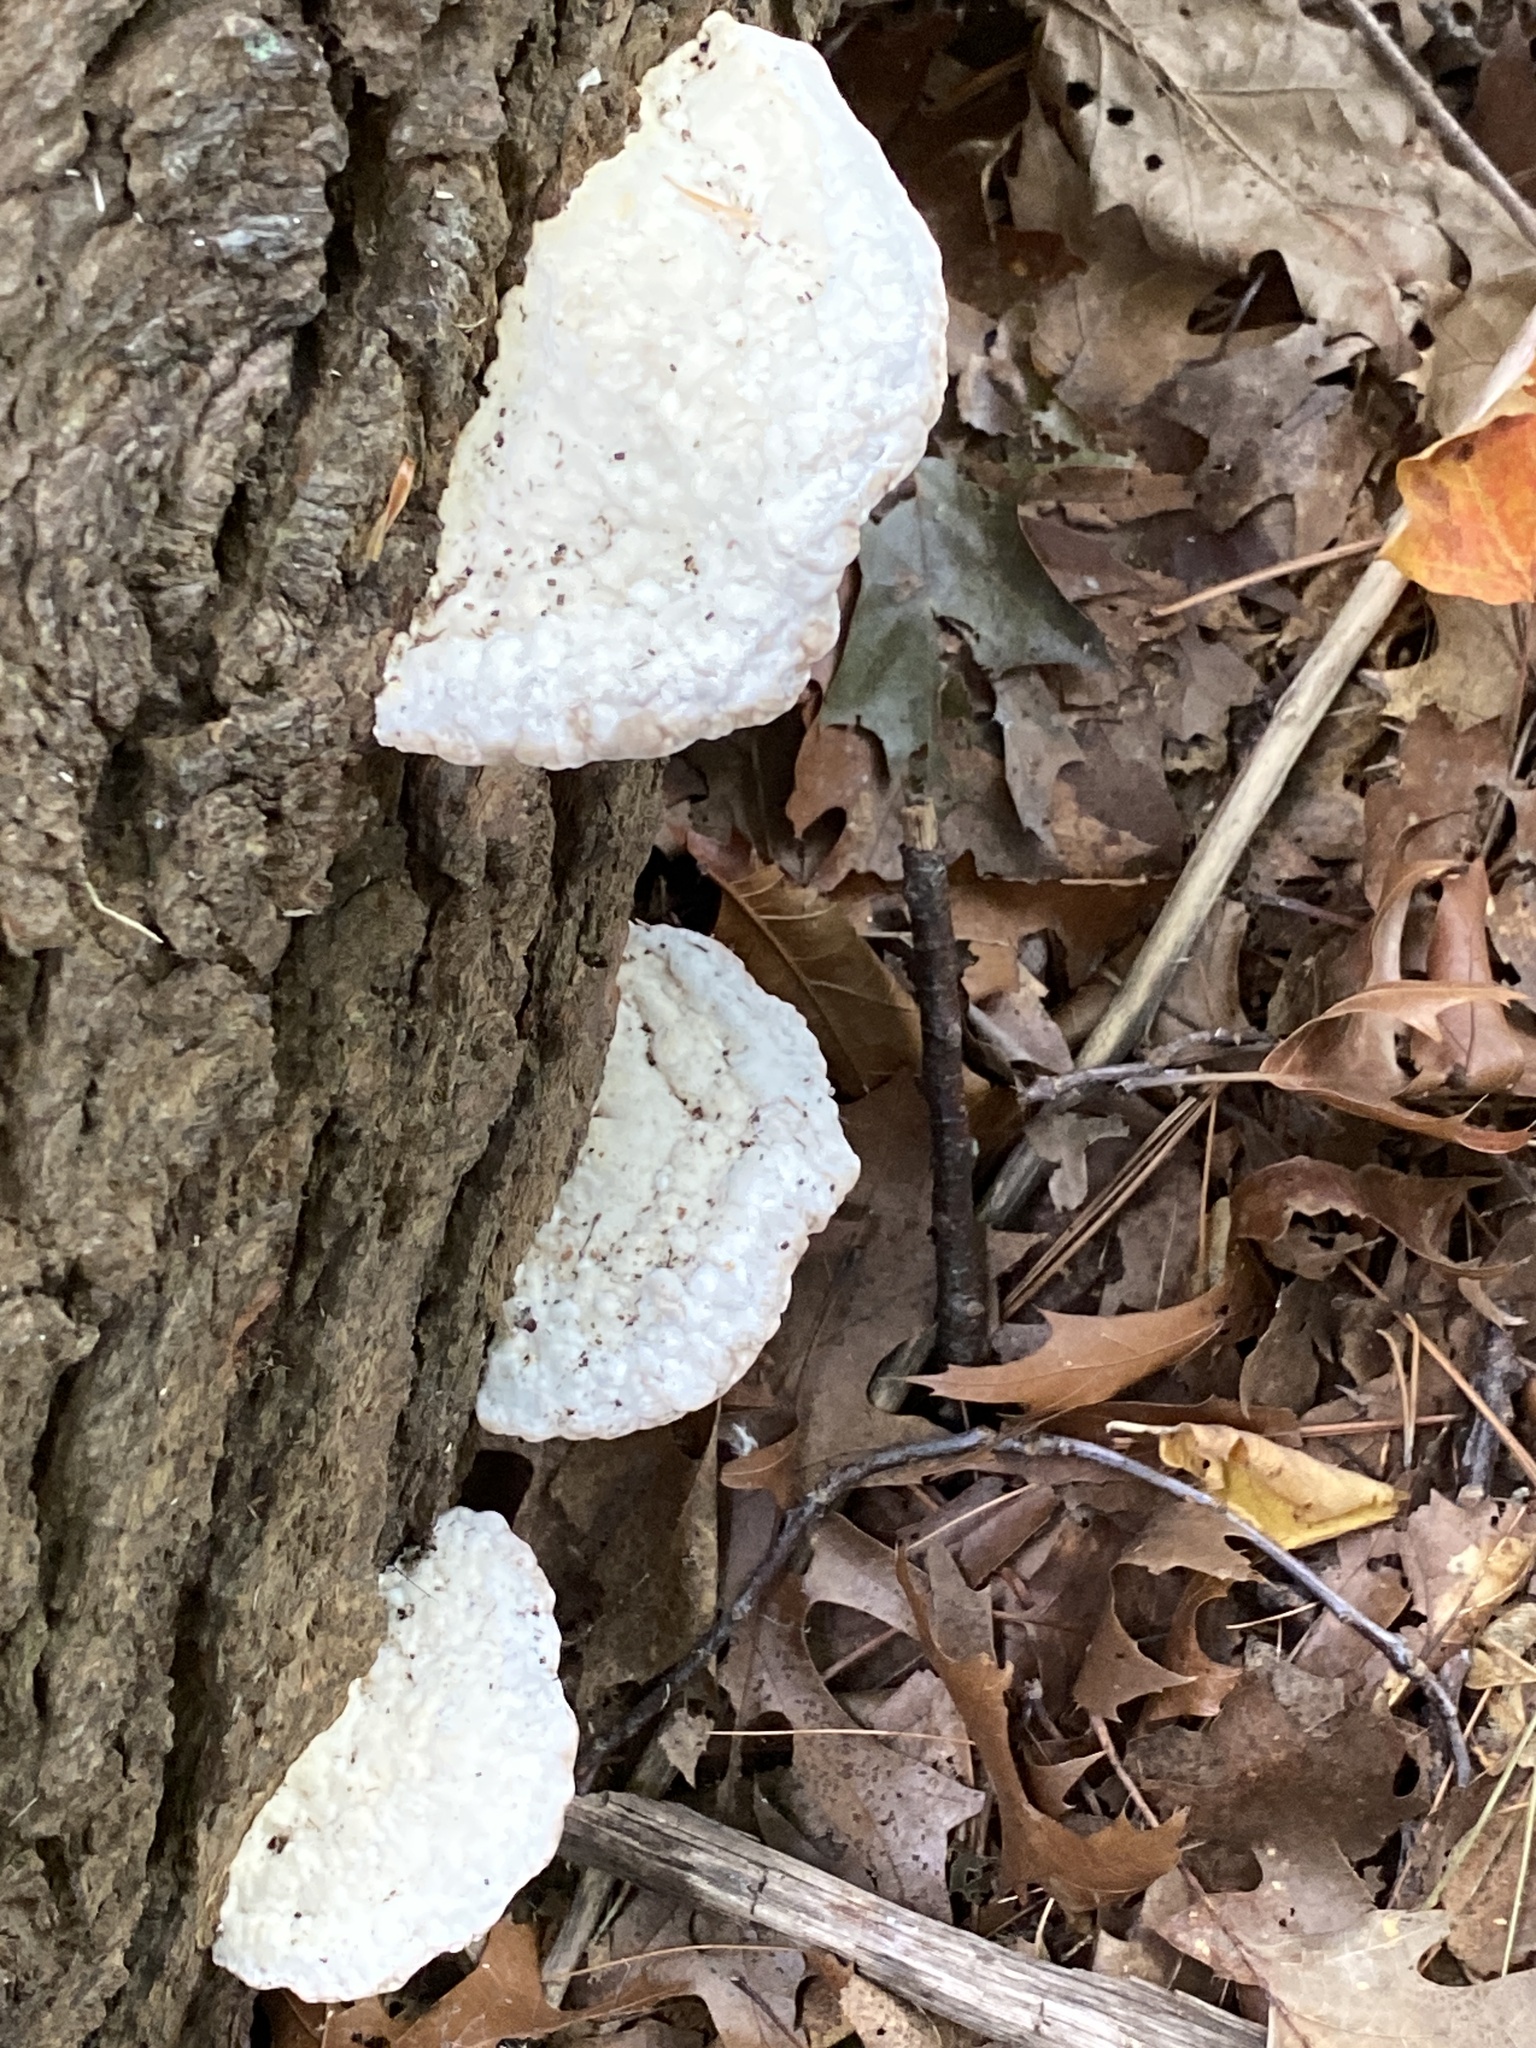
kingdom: Fungi
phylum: Basidiomycota
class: Agaricomycetes
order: Polyporales
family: Polyporaceae
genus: Trametes
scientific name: Trametes gibbosa
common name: Lumpy bracket
